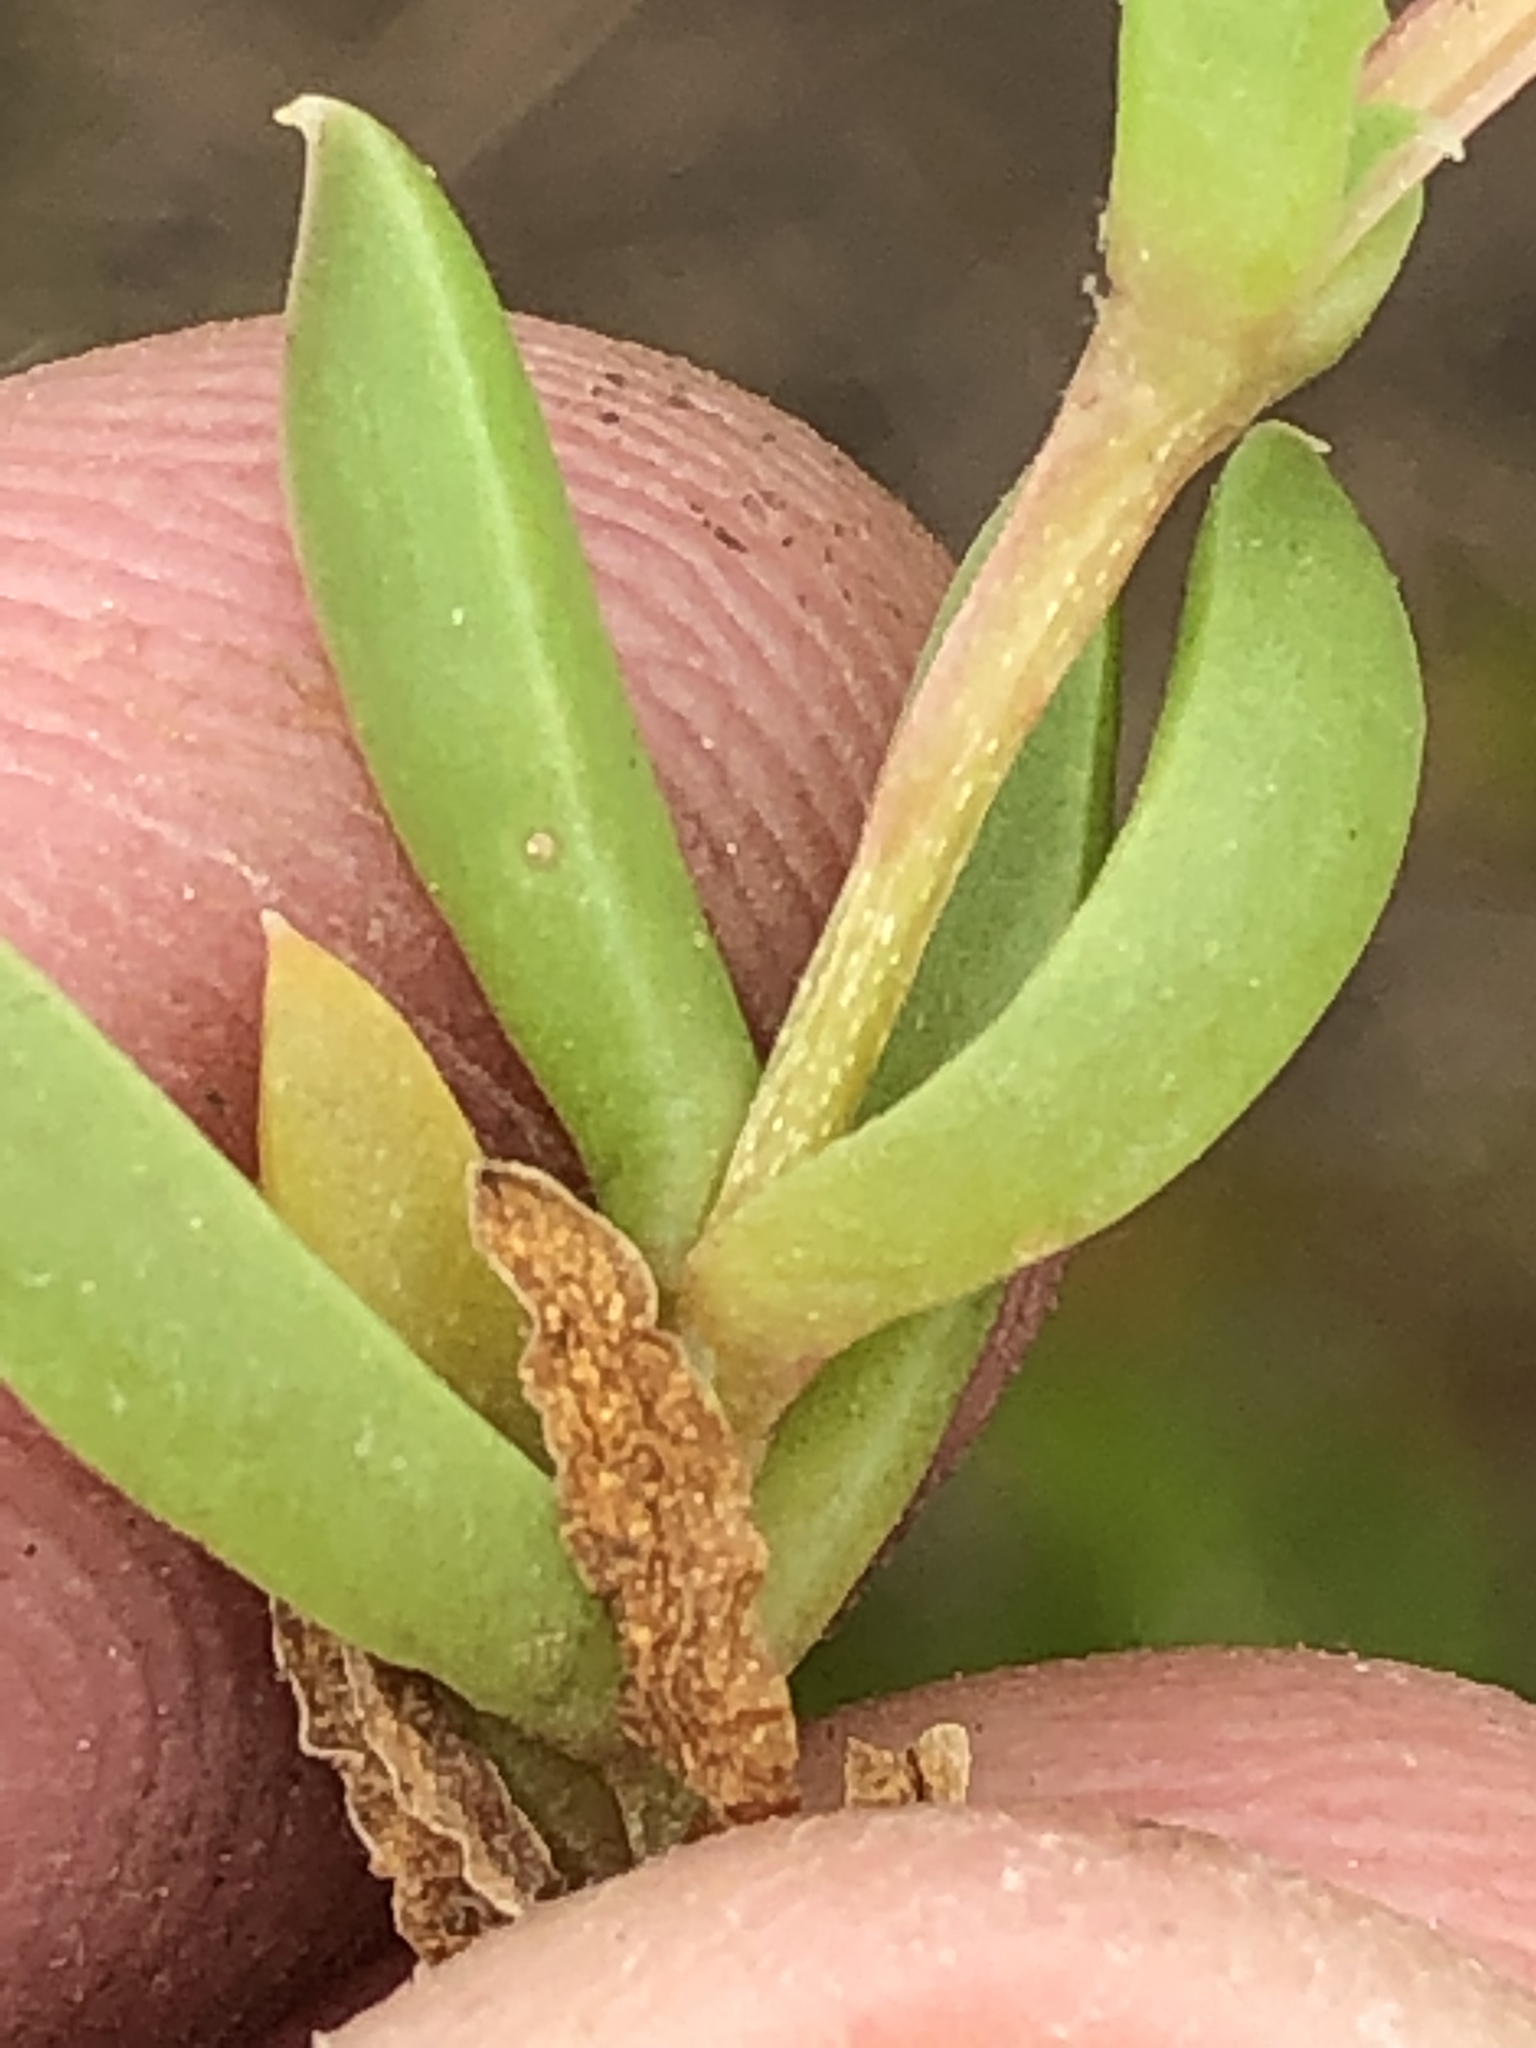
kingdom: Plantae
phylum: Tracheophyta
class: Magnoliopsida
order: Caryophyllales
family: Aizoaceae
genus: Delosperma
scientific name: Delosperma inconspicuum
